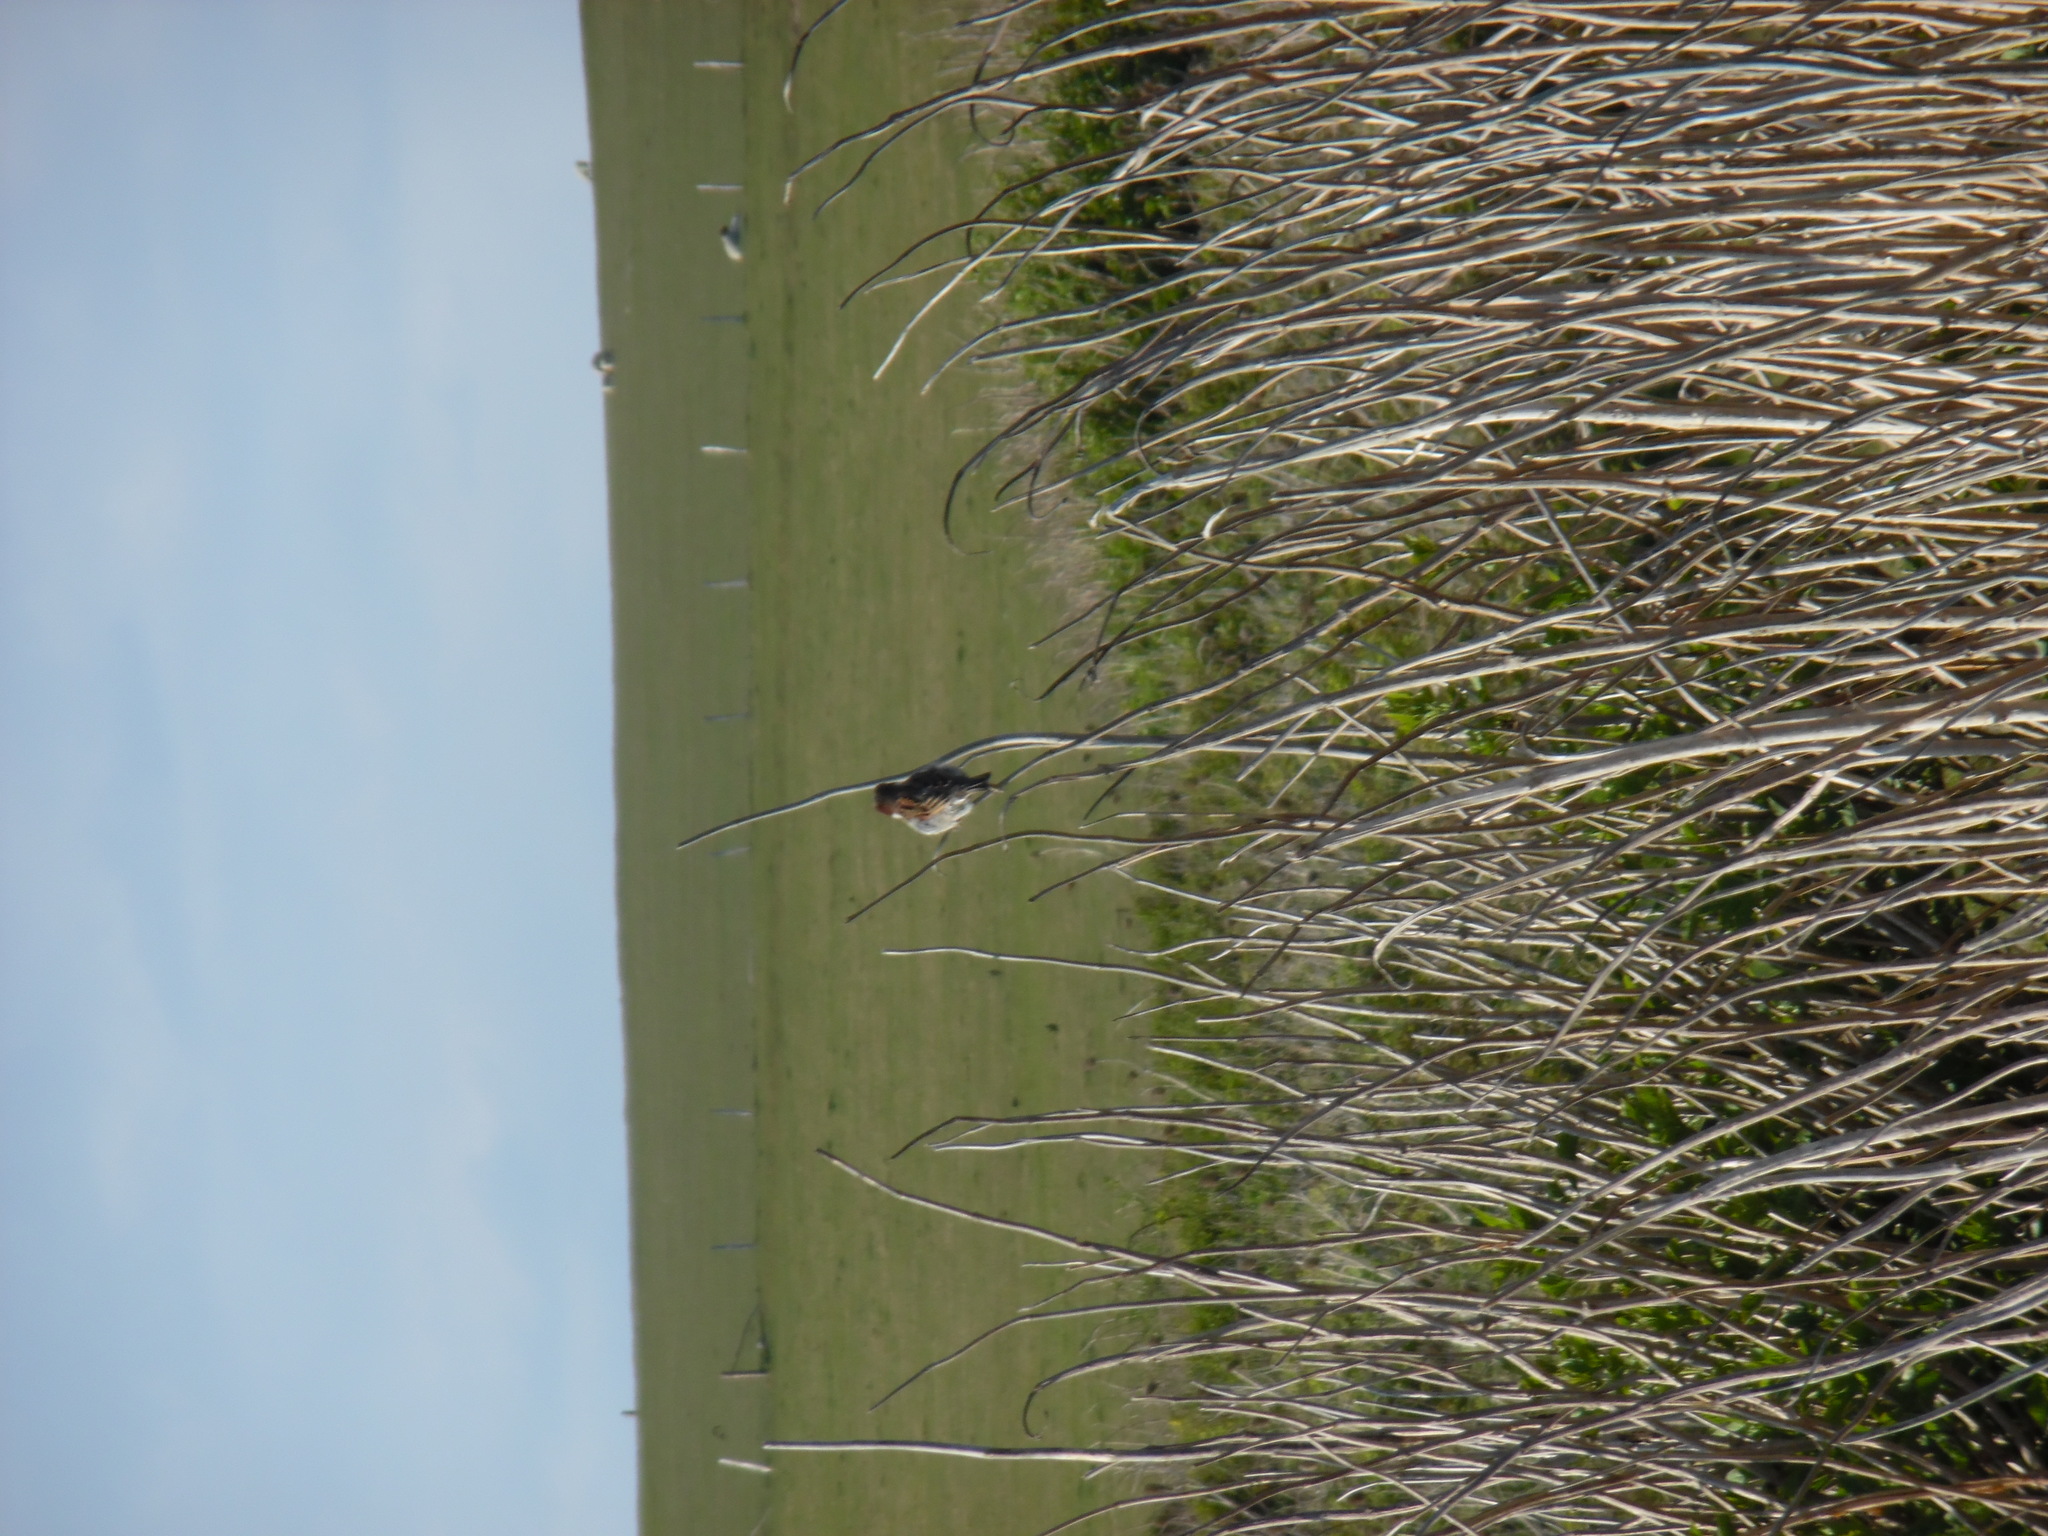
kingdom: Animalia
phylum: Chordata
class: Aves
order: Passeriformes
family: Passeridae
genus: Passer
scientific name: Passer domesticus
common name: House sparrow
